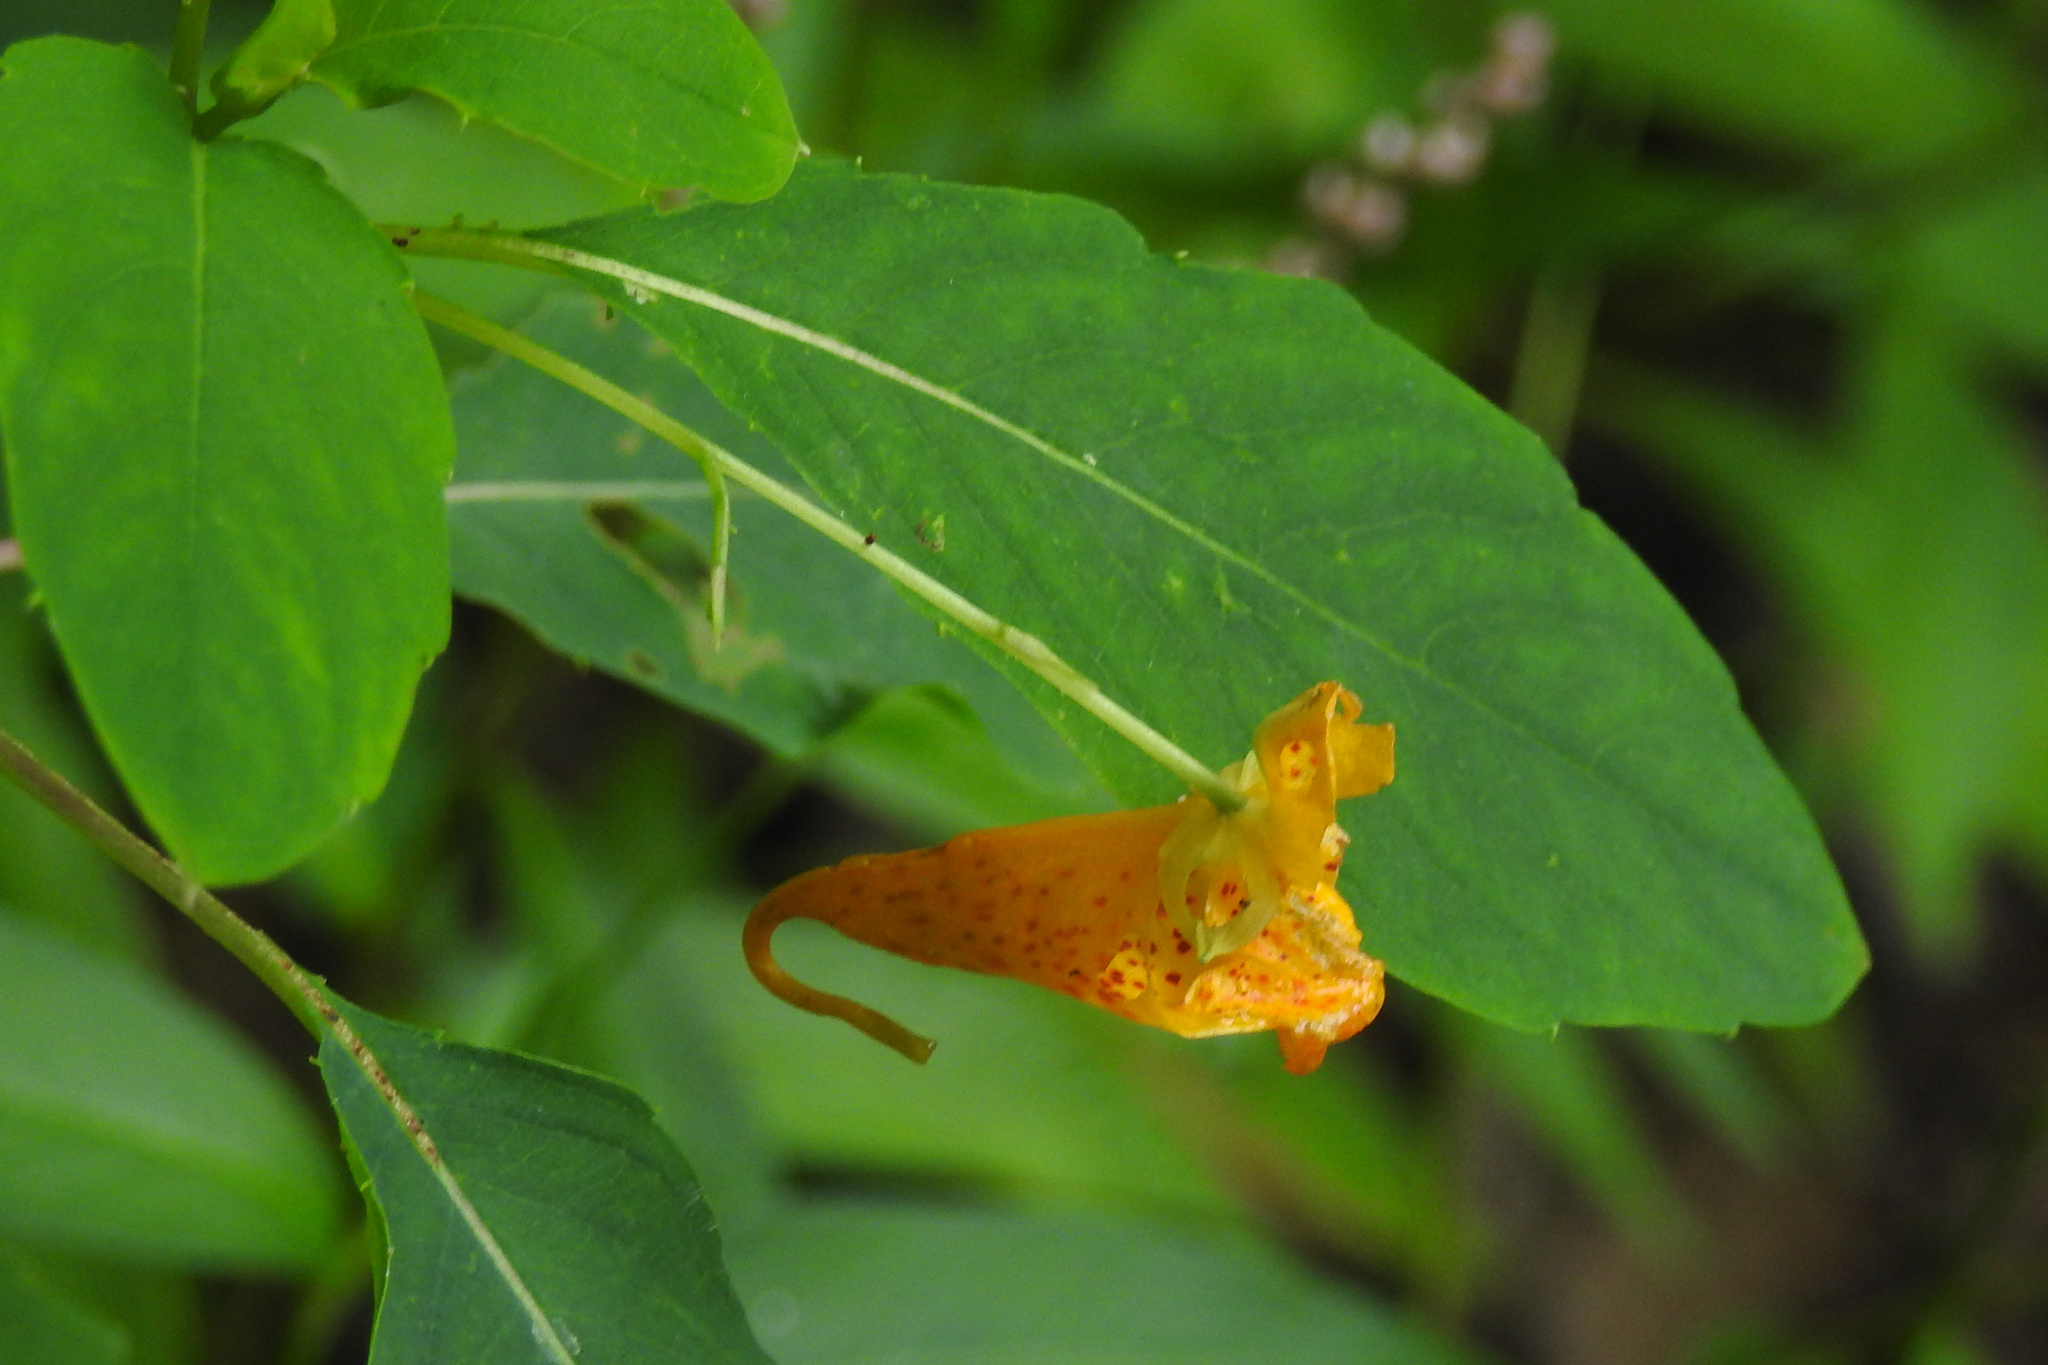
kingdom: Plantae
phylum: Tracheophyta
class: Magnoliopsida
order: Ericales
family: Balsaminaceae
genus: Impatiens
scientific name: Impatiens capensis
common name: Orange balsam
